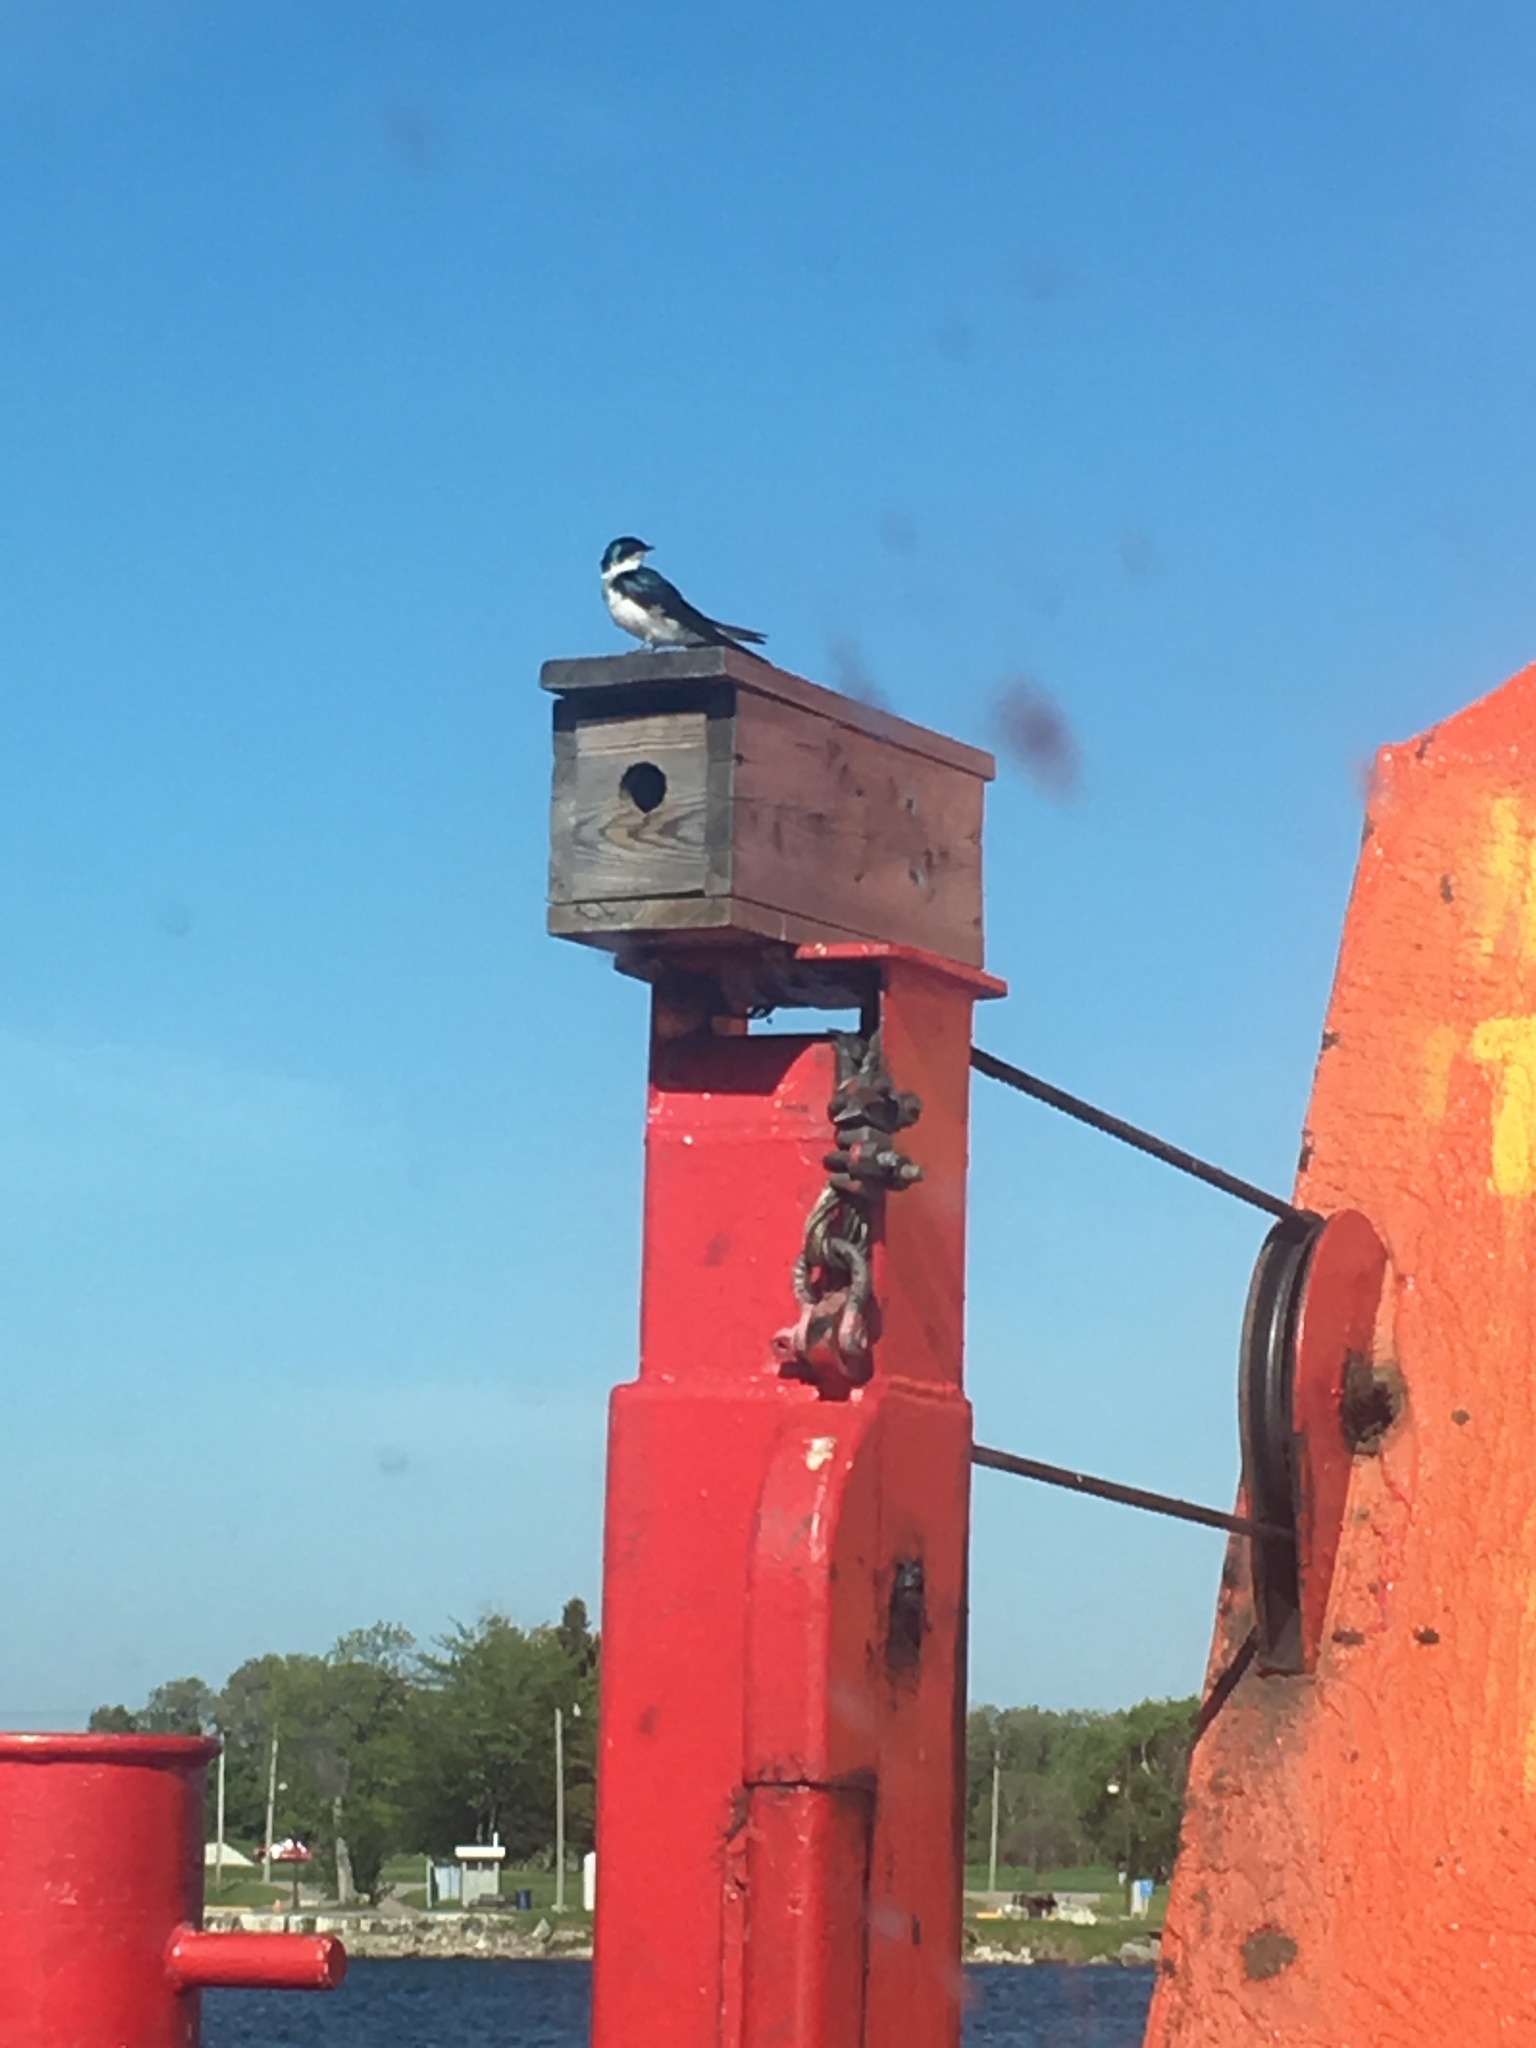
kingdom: Animalia
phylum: Chordata
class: Aves
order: Passeriformes
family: Hirundinidae
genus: Tachycineta
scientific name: Tachycineta bicolor
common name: Tree swallow
